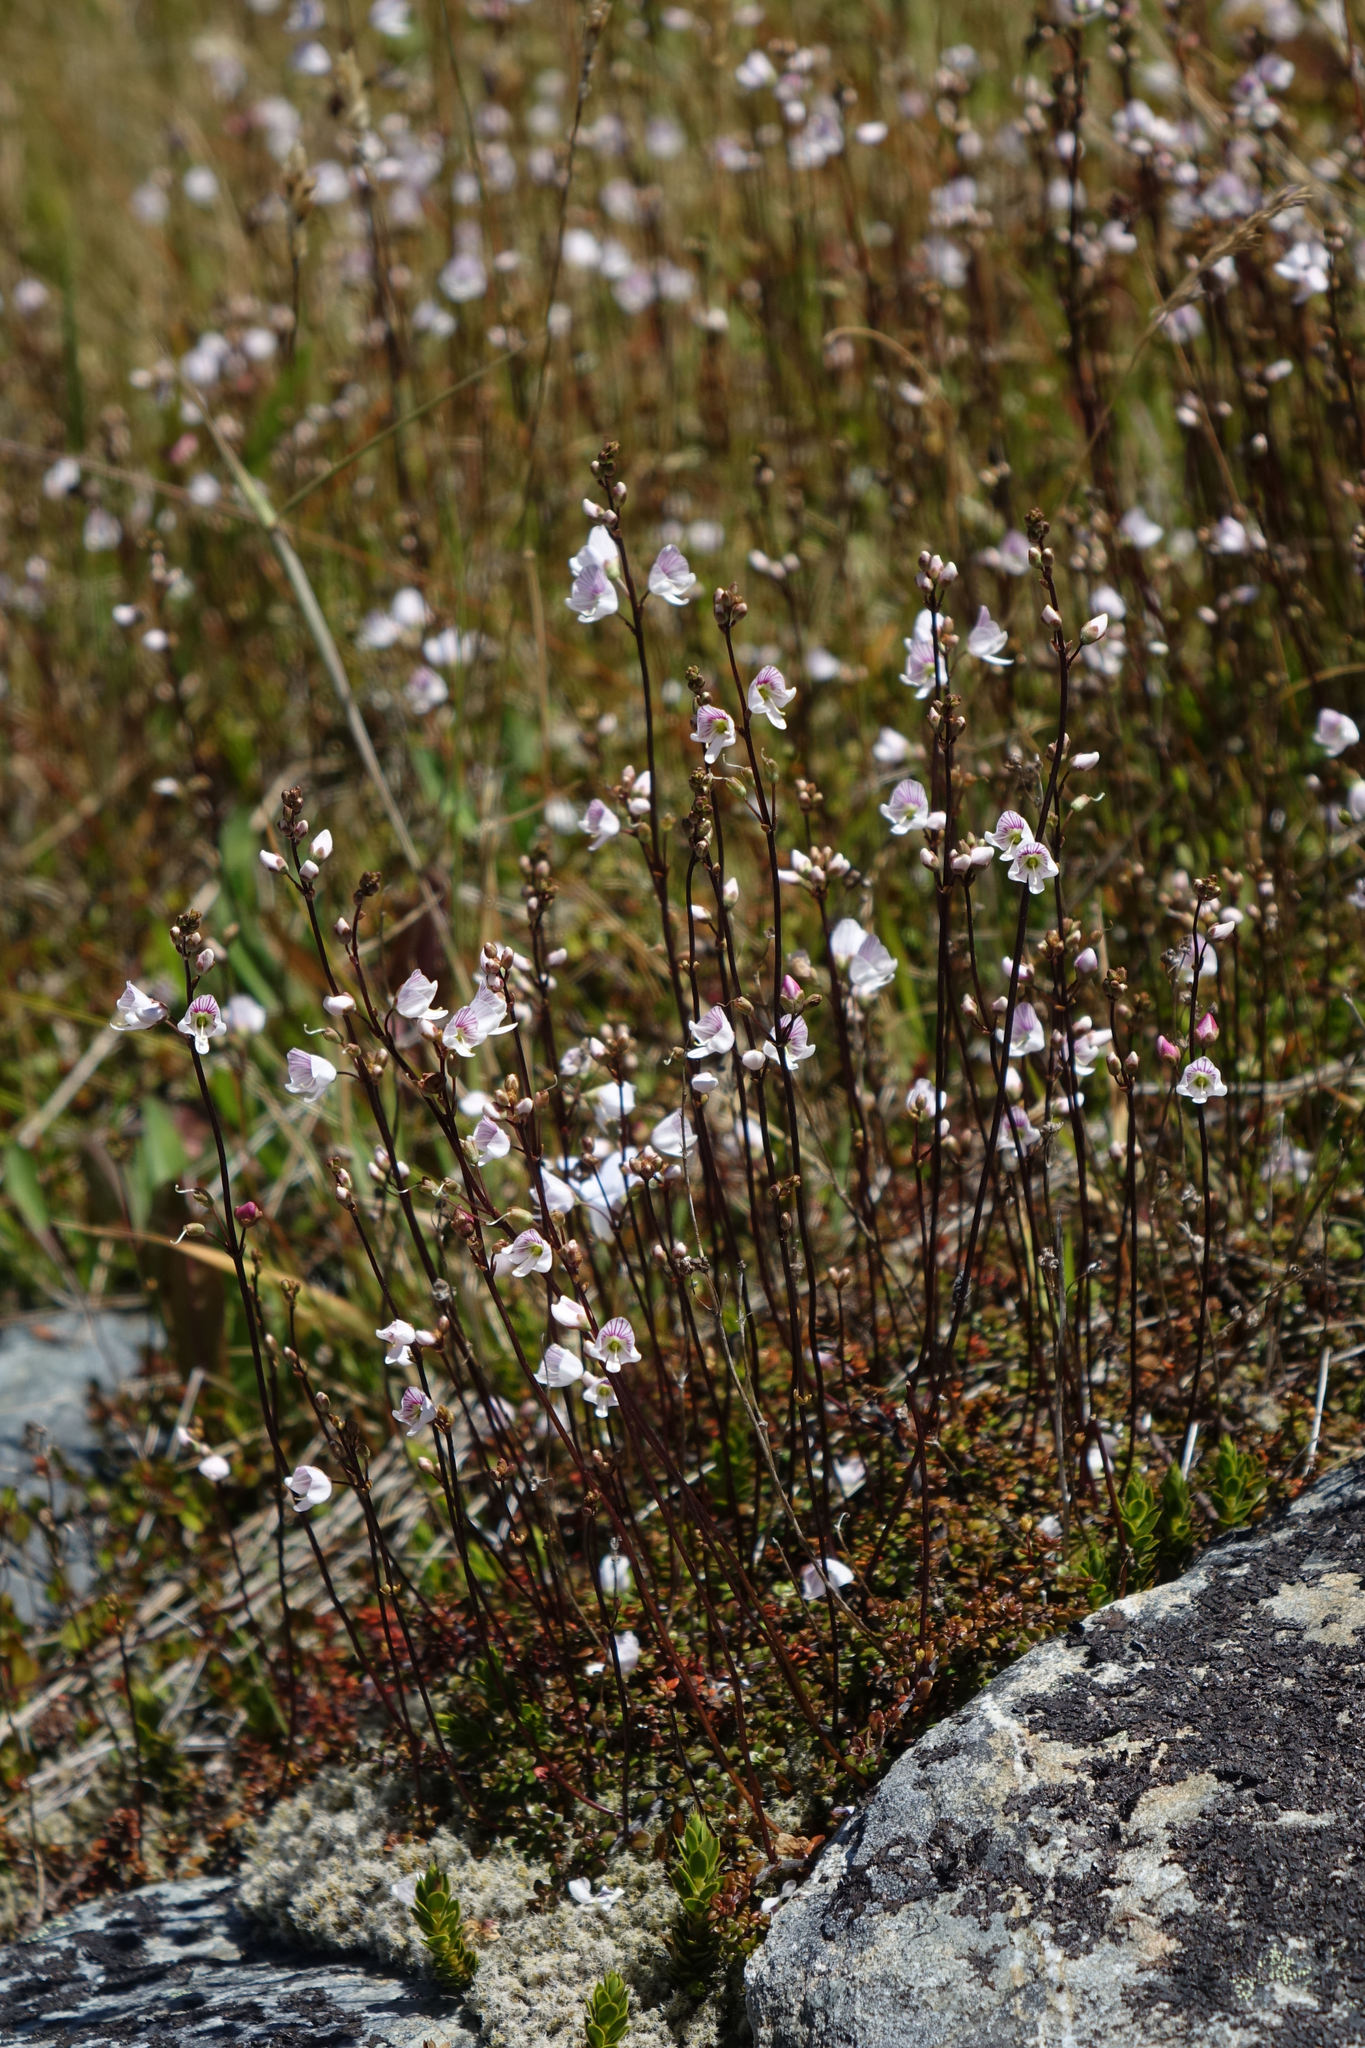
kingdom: Plantae
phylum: Tracheophyta
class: Magnoliopsida
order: Lamiales
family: Plantaginaceae
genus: Veronica
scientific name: Veronica decora
